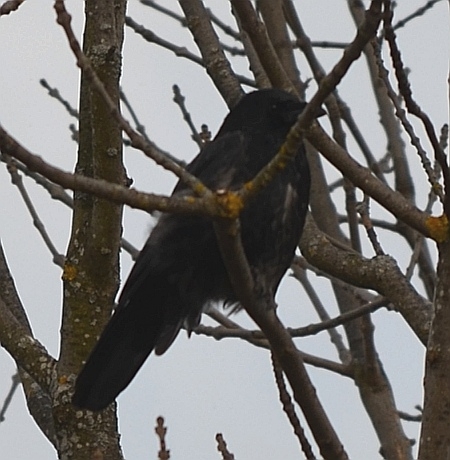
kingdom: Animalia
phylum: Chordata
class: Aves
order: Passeriformes
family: Corvidae
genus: Corvus
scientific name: Corvus
